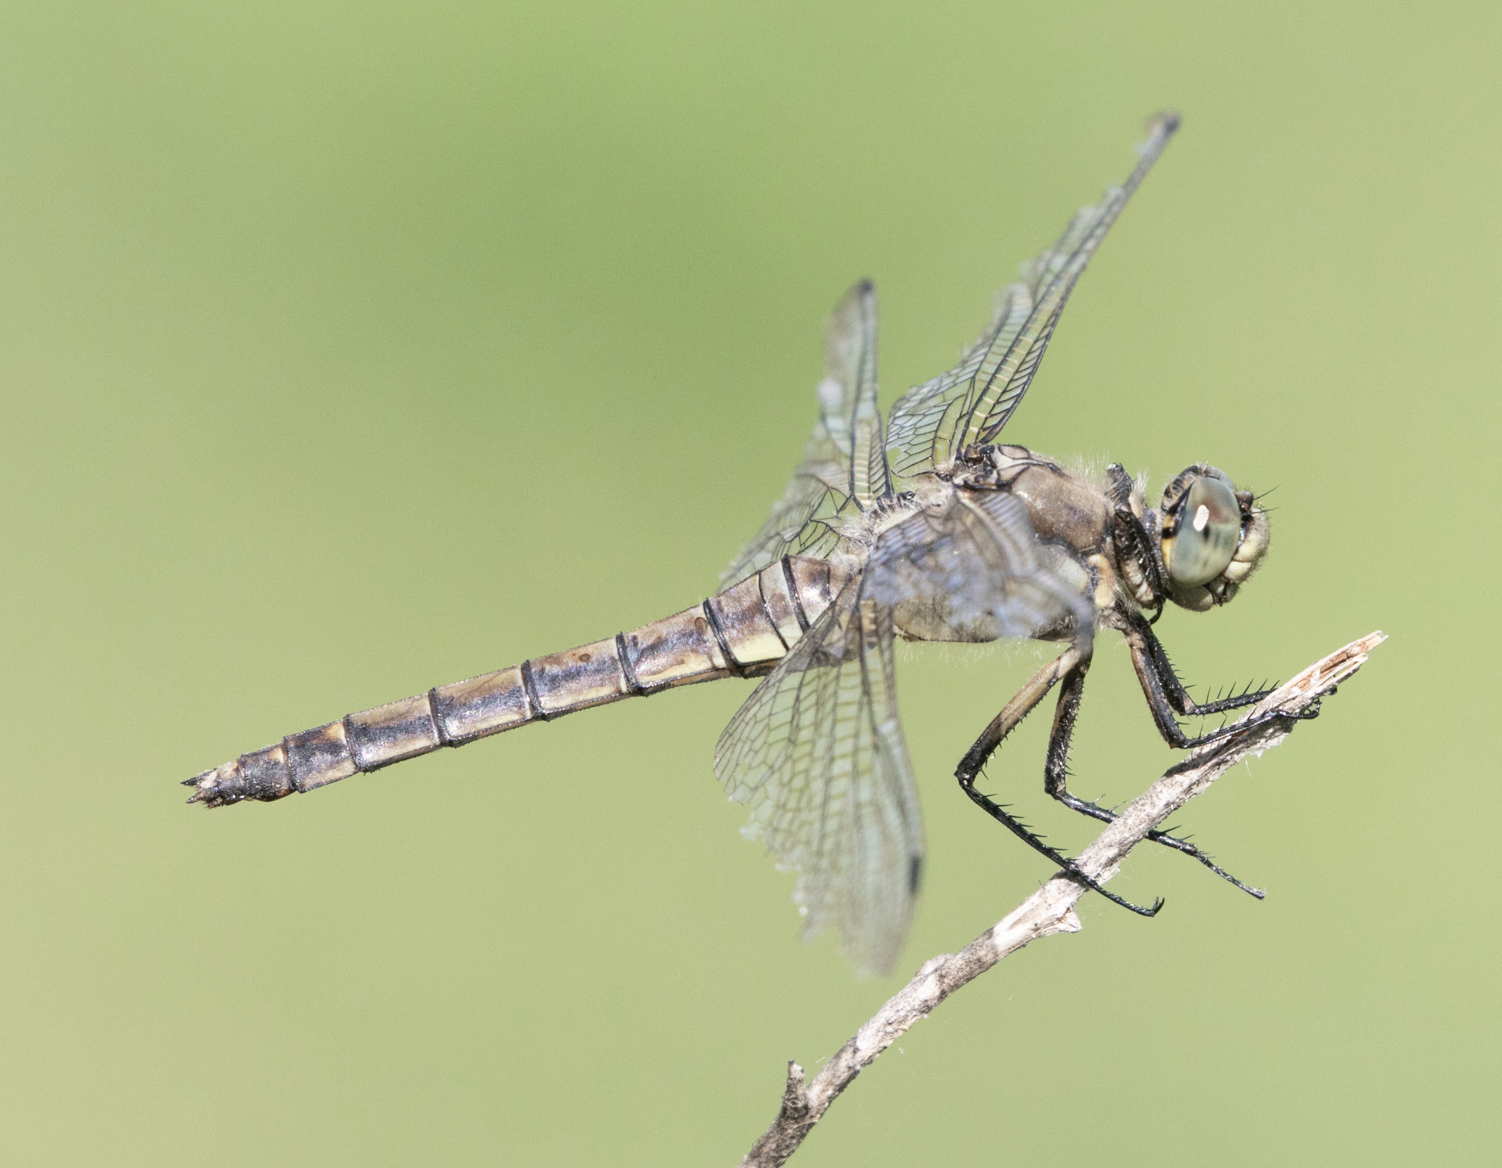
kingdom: Animalia
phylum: Arthropoda
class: Insecta
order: Odonata
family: Libellulidae
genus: Orthetrum
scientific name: Orthetrum cancellatum
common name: Black-tailed skimmer
